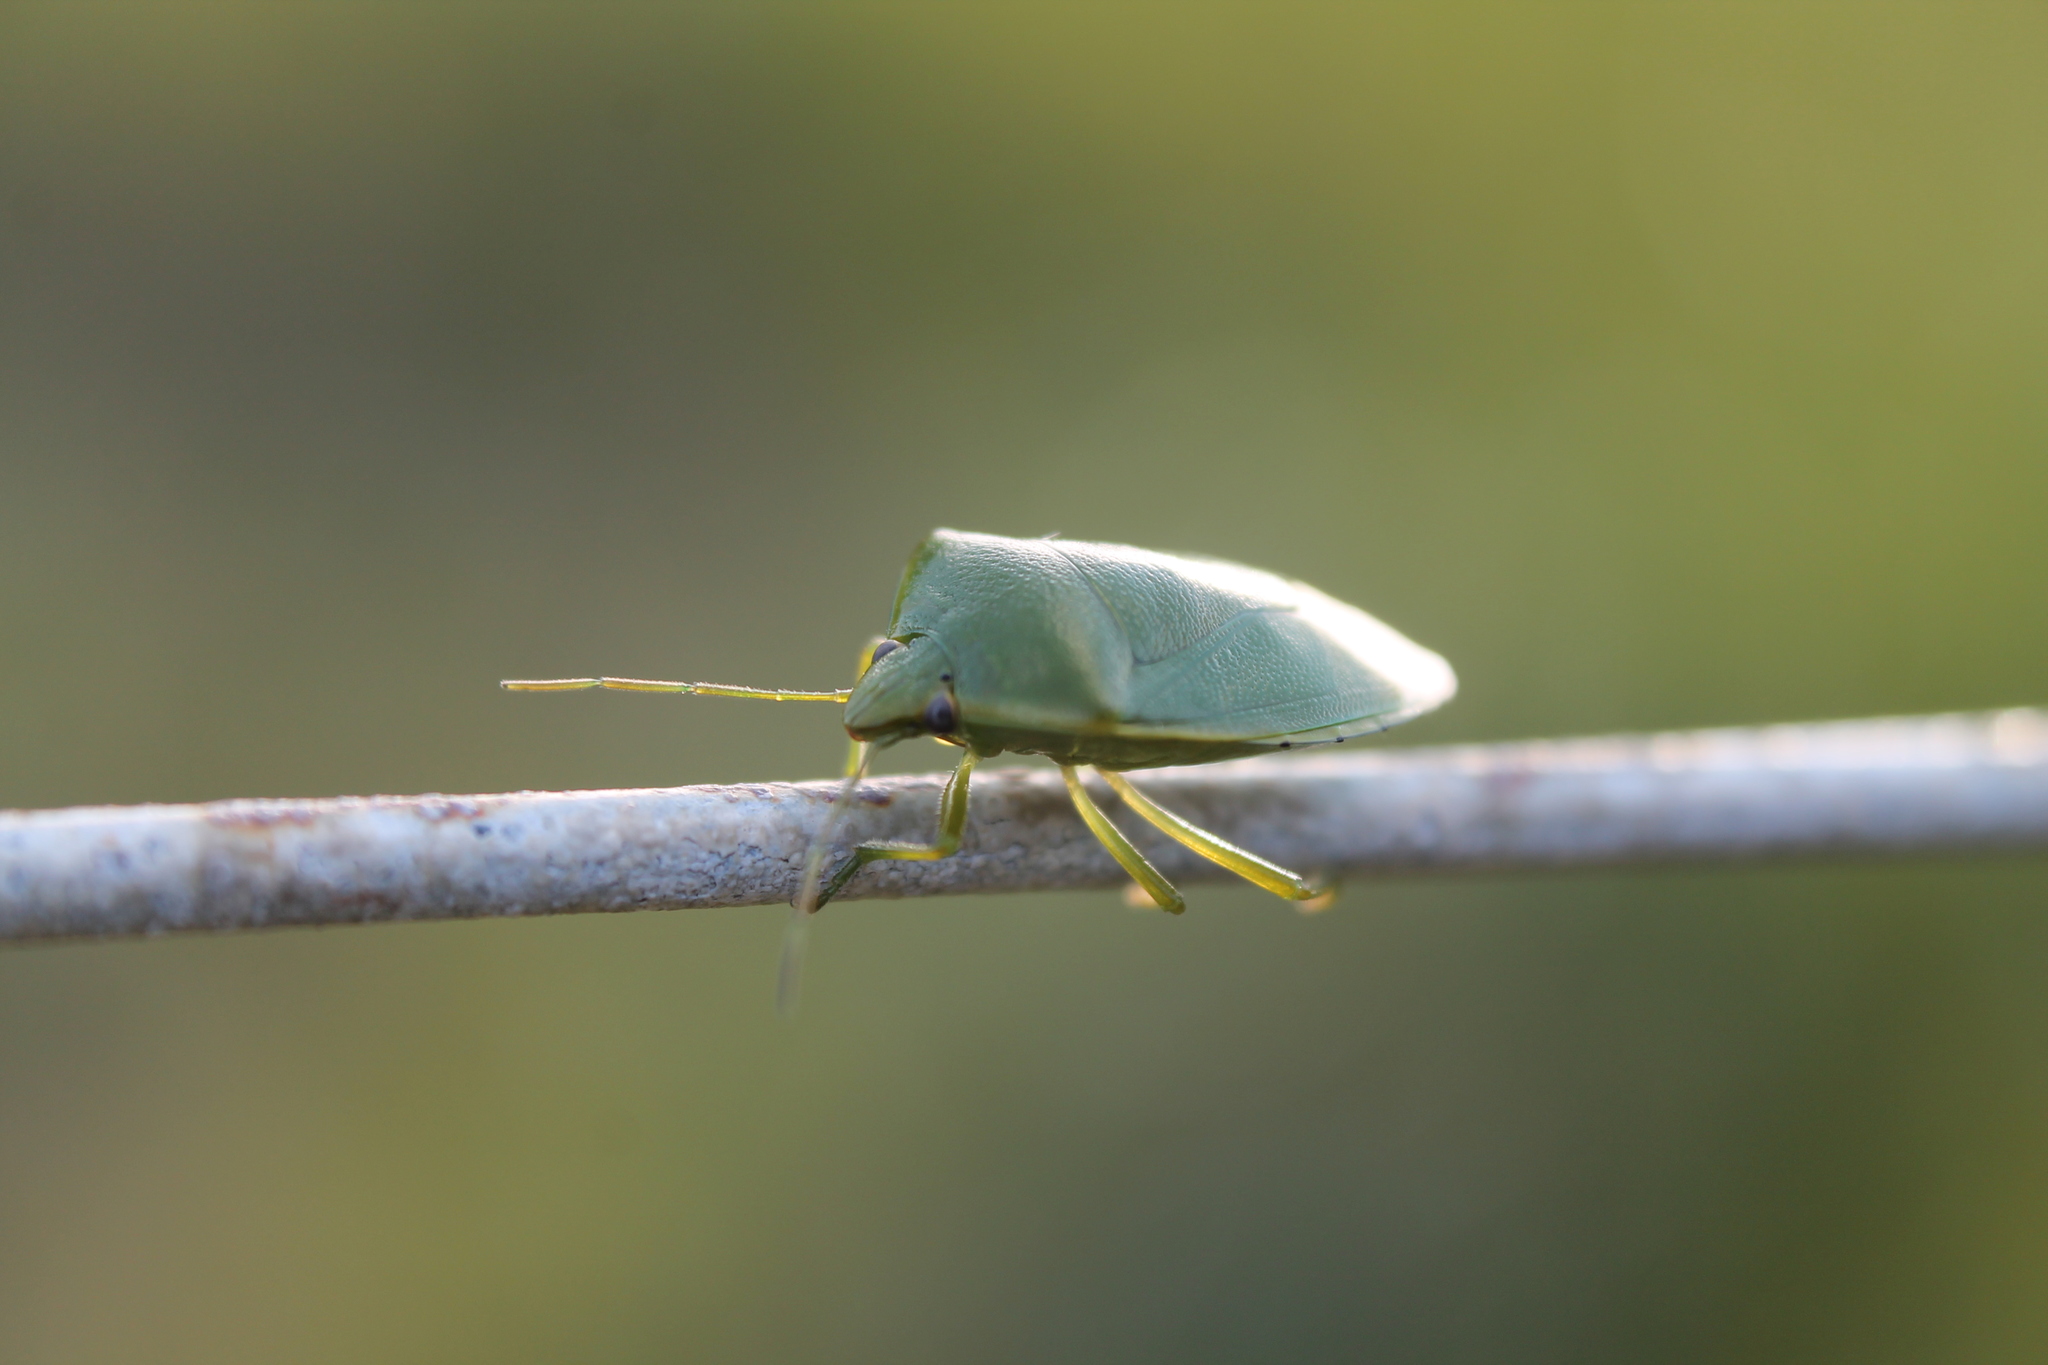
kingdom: Animalia
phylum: Arthropoda
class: Insecta
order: Hemiptera
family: Pentatomidae
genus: Glaucias
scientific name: Glaucias amyota
